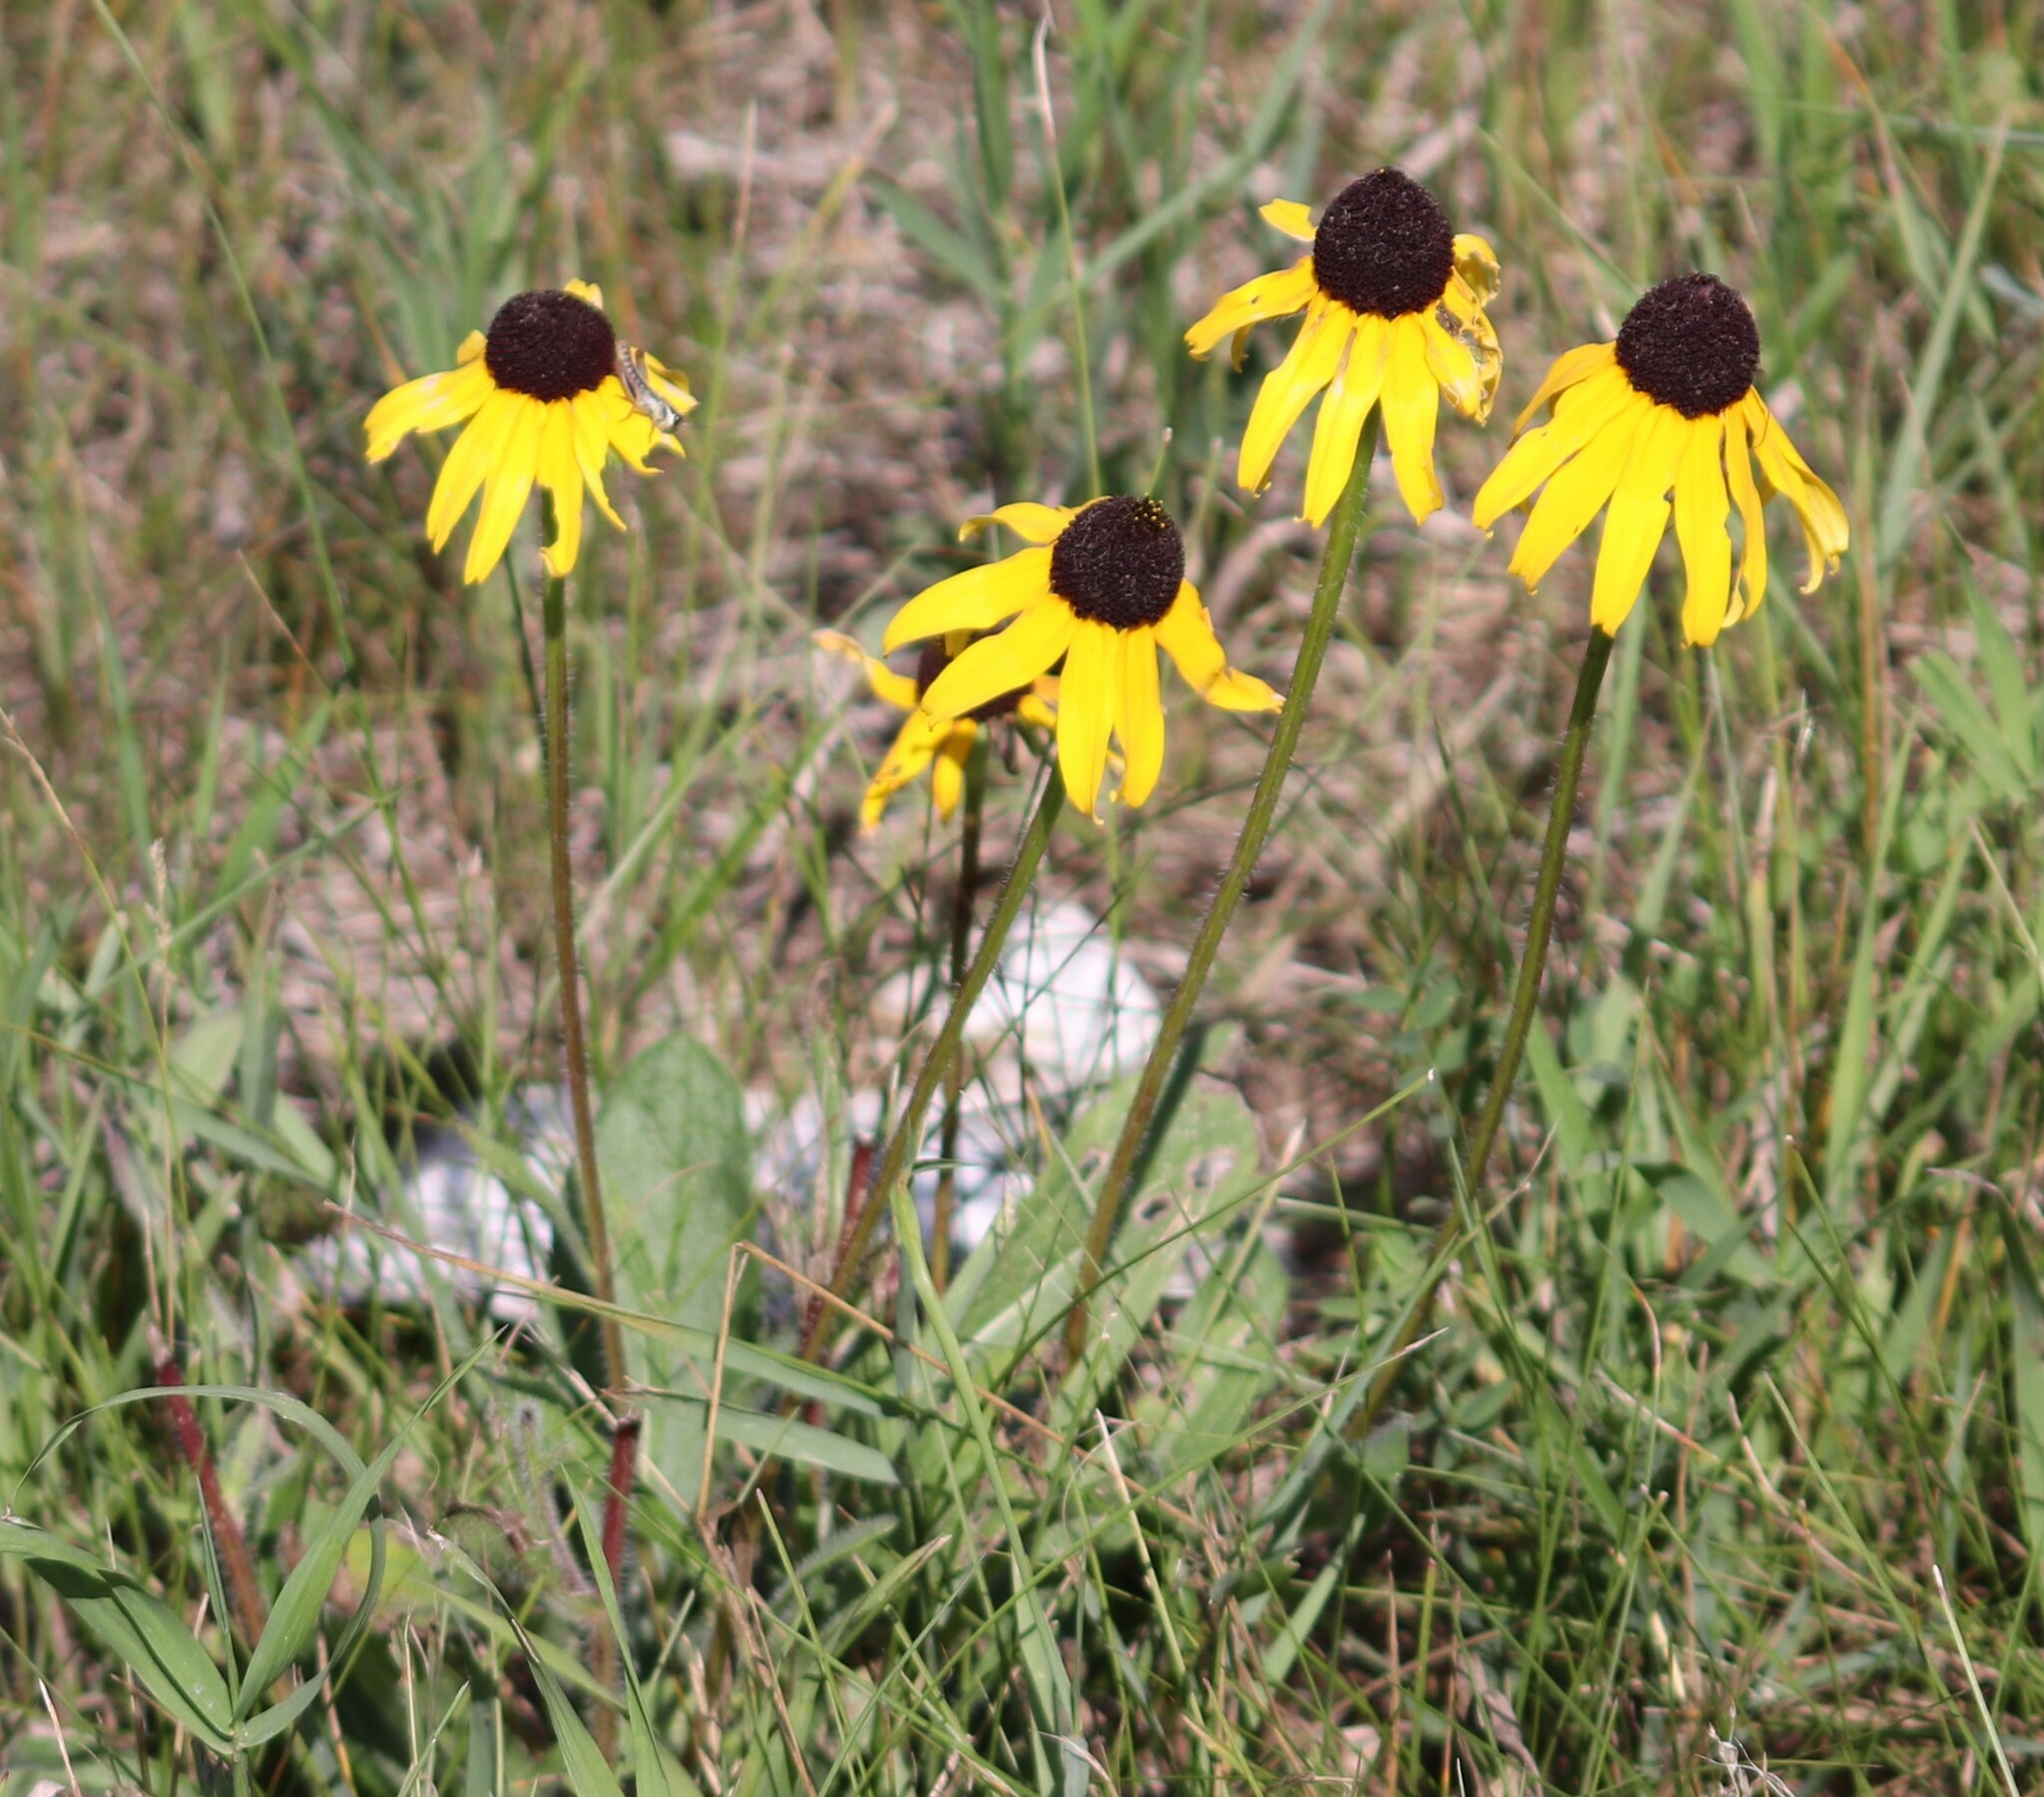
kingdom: Plantae
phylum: Tracheophyta
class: Magnoliopsida
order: Asterales
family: Asteraceae
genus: Rudbeckia
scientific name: Rudbeckia hirta
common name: Black-eyed-susan
